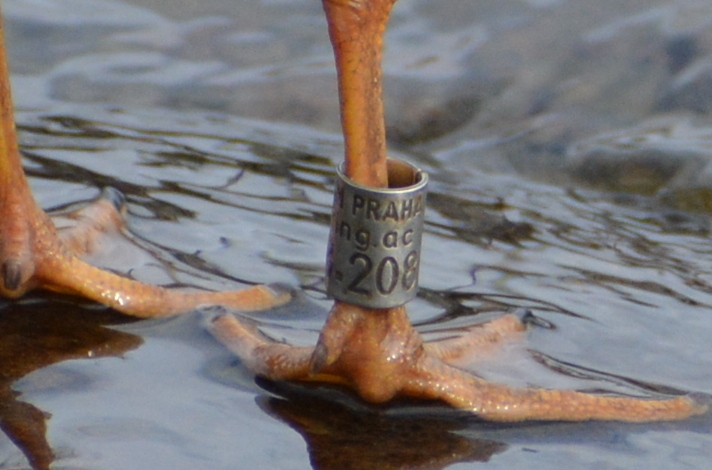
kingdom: Animalia
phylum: Chordata
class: Aves
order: Charadriiformes
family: Laridae
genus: Chroicocephalus
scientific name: Chroicocephalus ridibundus
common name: Black-headed gull
